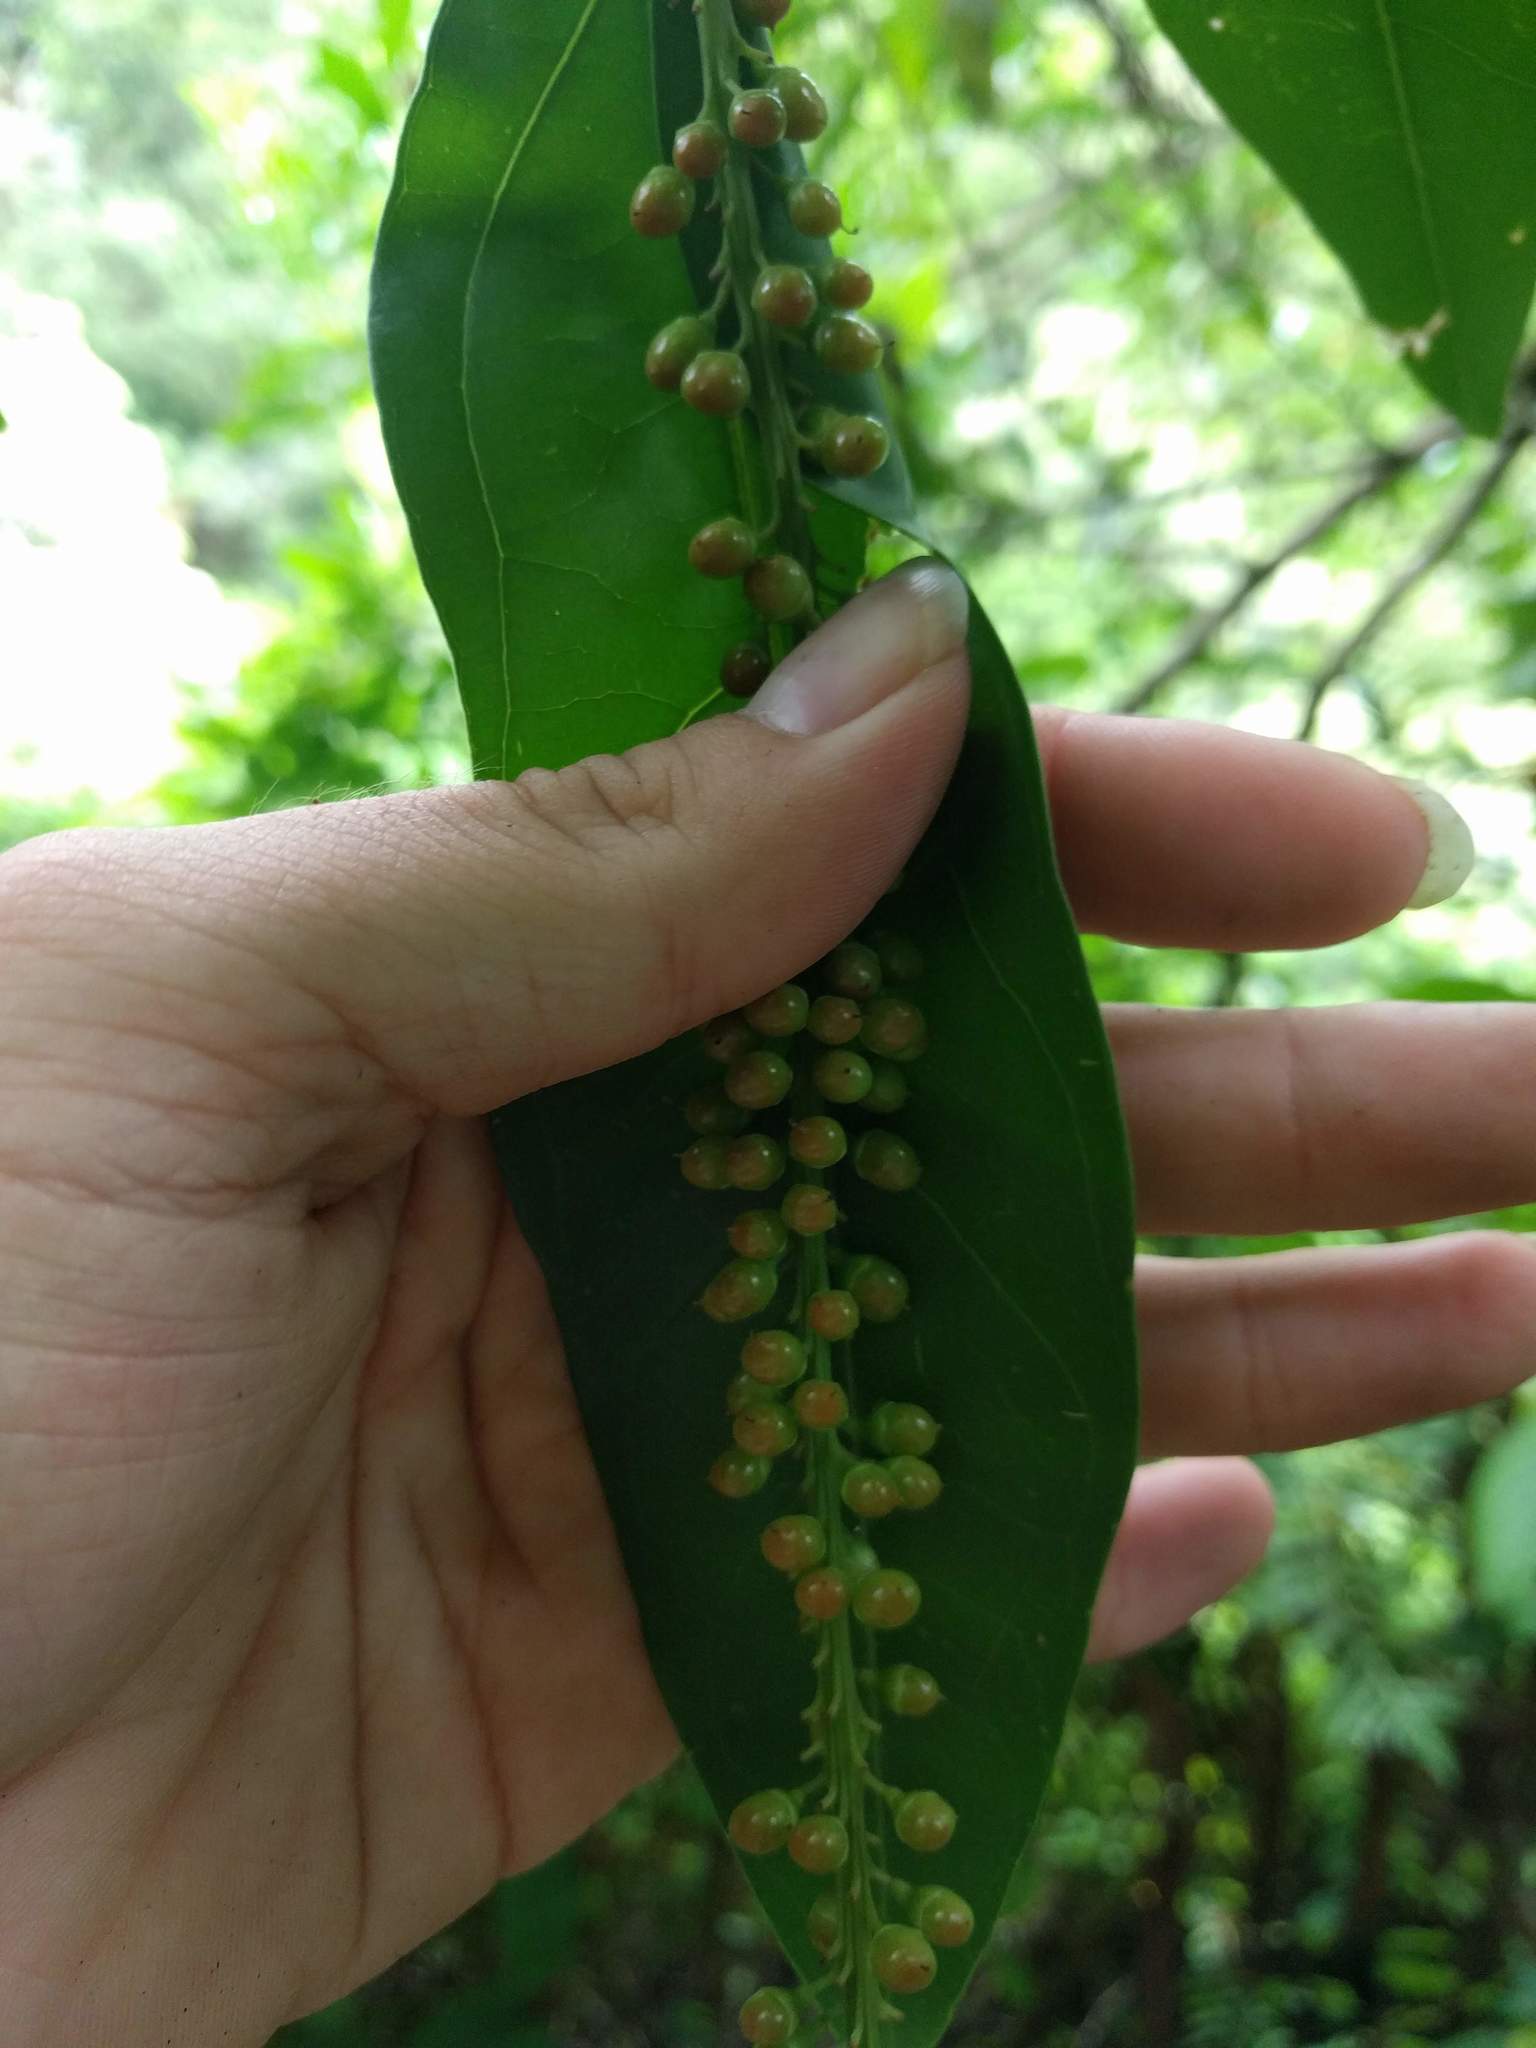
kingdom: Plantae
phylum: Tracheophyta
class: Magnoliopsida
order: Lamiales
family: Verbenaceae
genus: Citharexylum
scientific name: Citharexylum caudatum
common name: Fiddlewood
